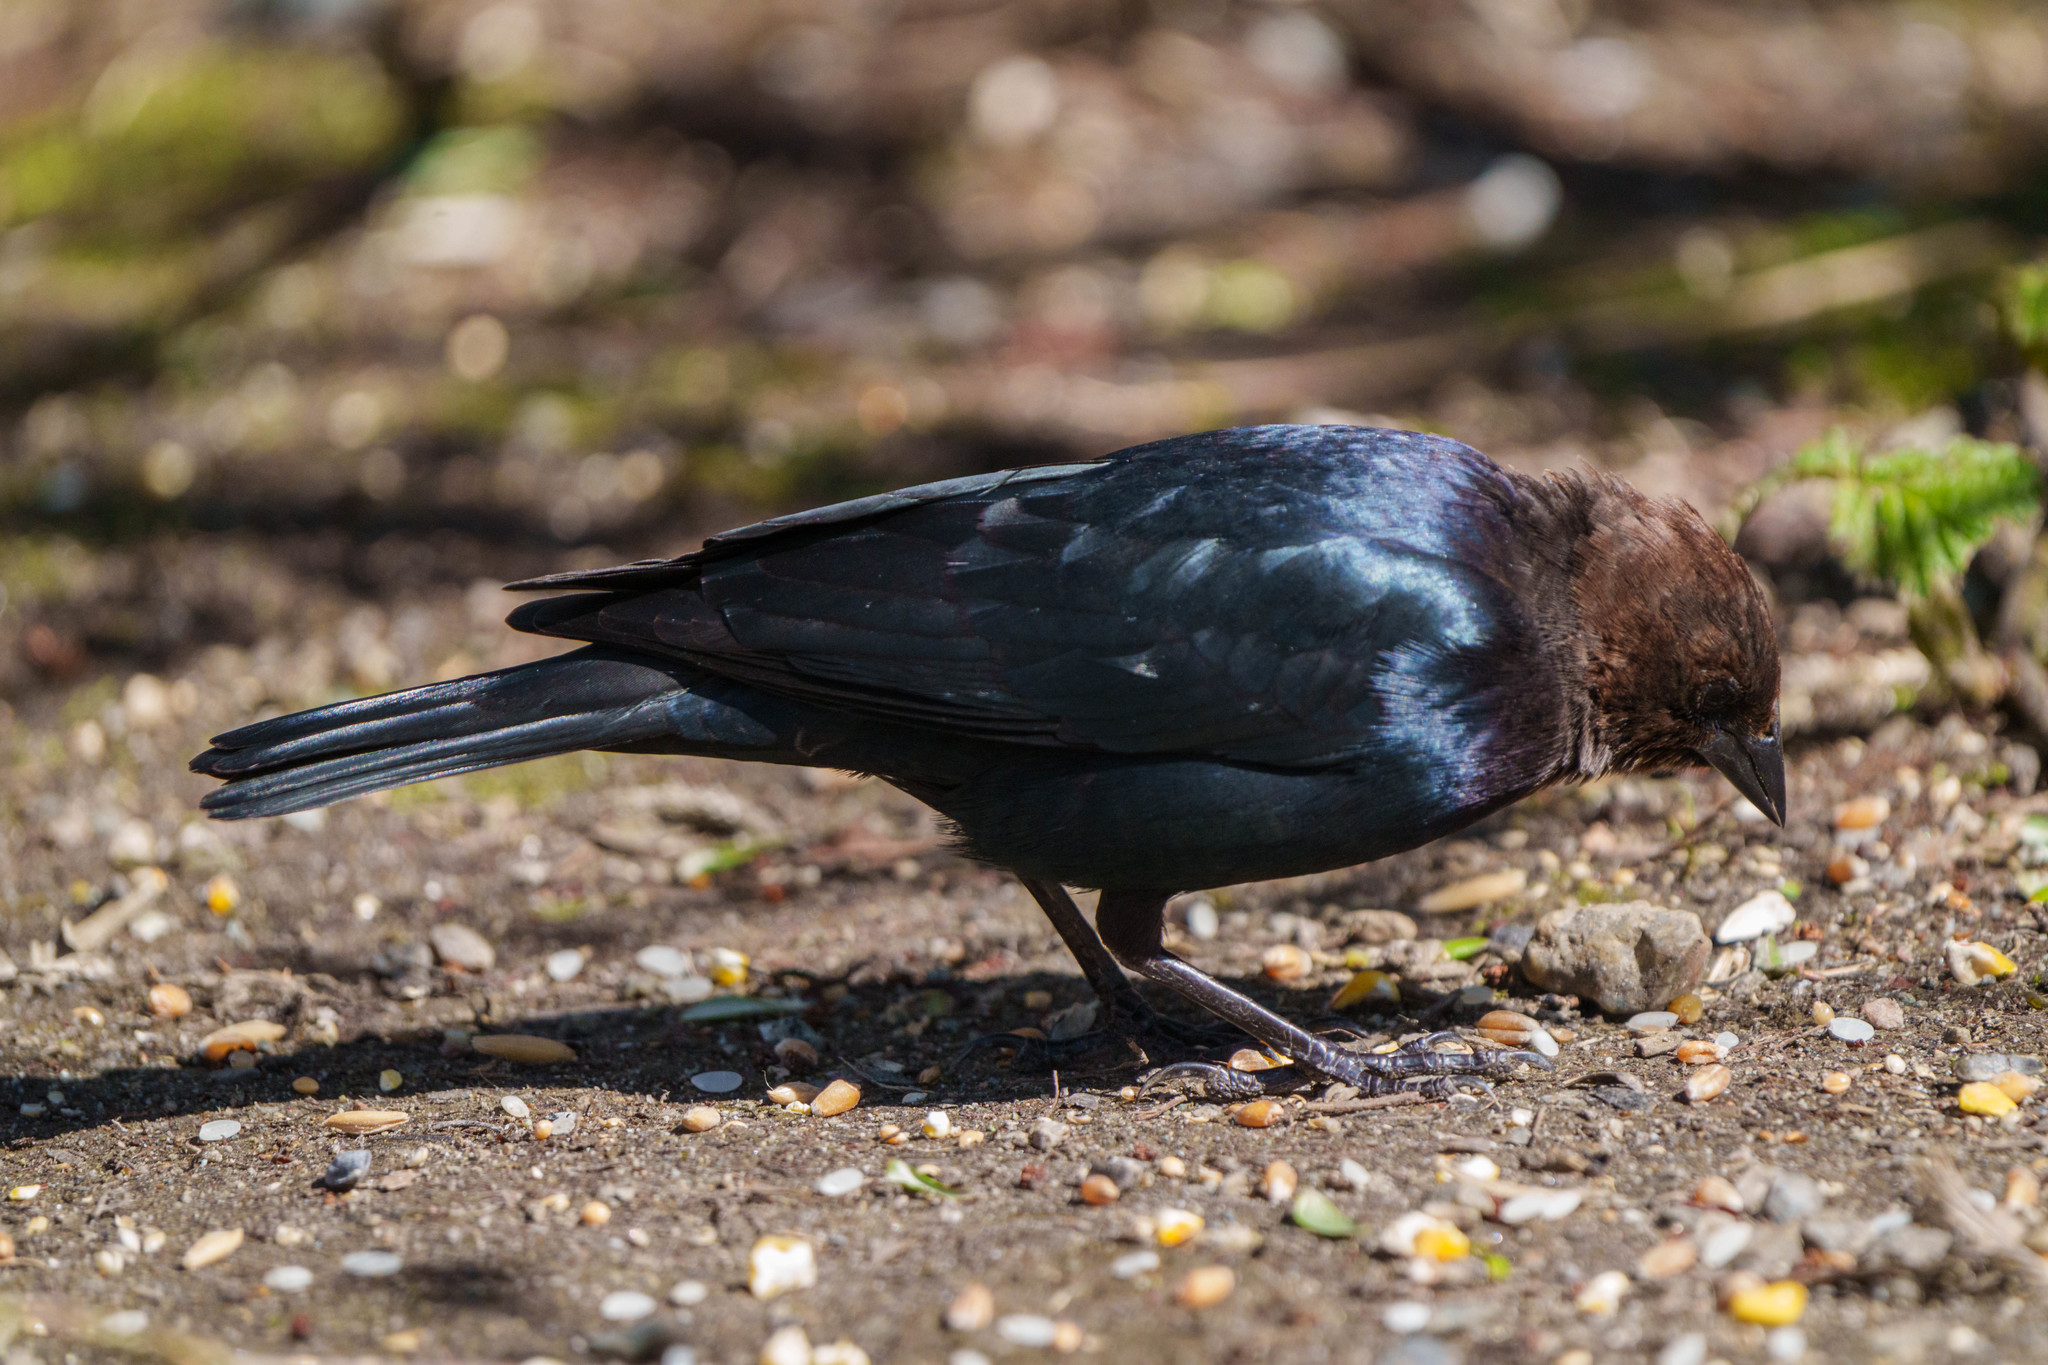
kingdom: Animalia
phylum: Chordata
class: Aves
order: Passeriformes
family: Icteridae
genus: Molothrus
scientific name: Molothrus ater
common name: Brown-headed cowbird
